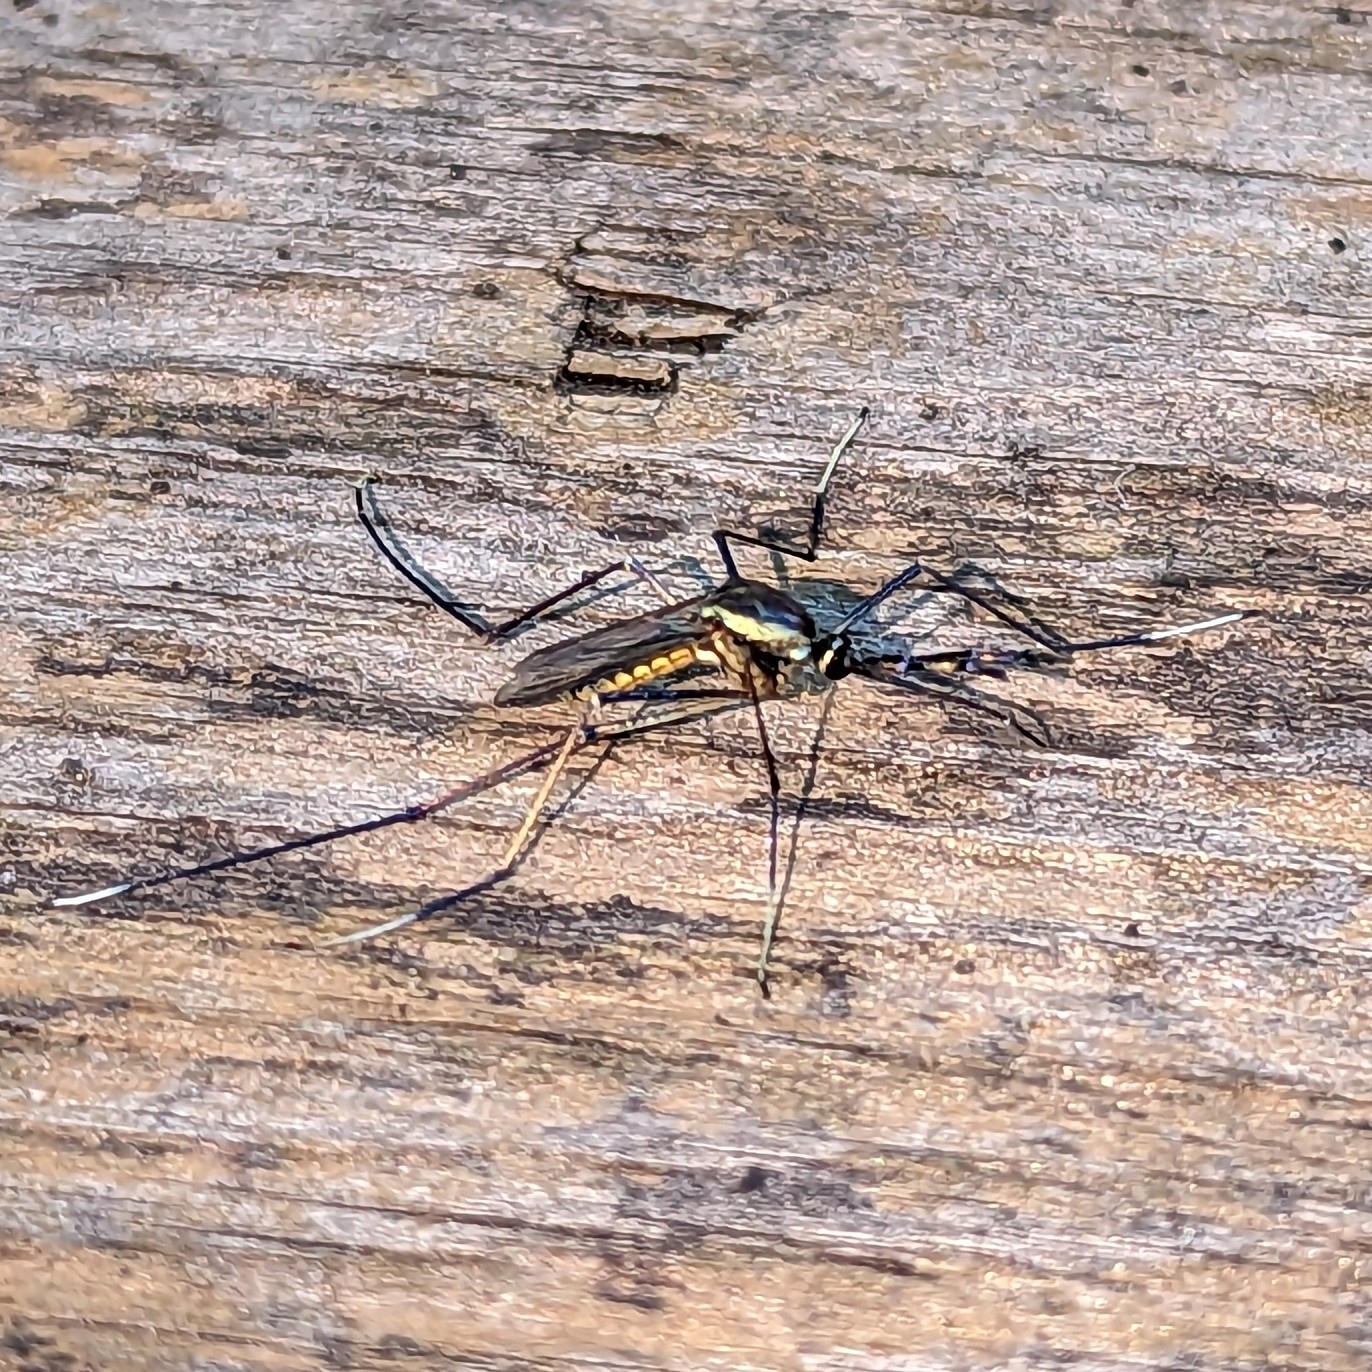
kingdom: Animalia
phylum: Arthropoda
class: Insecta
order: Diptera
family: Culicidae
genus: Toxorhynchites
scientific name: Toxorhynchites rutilus
